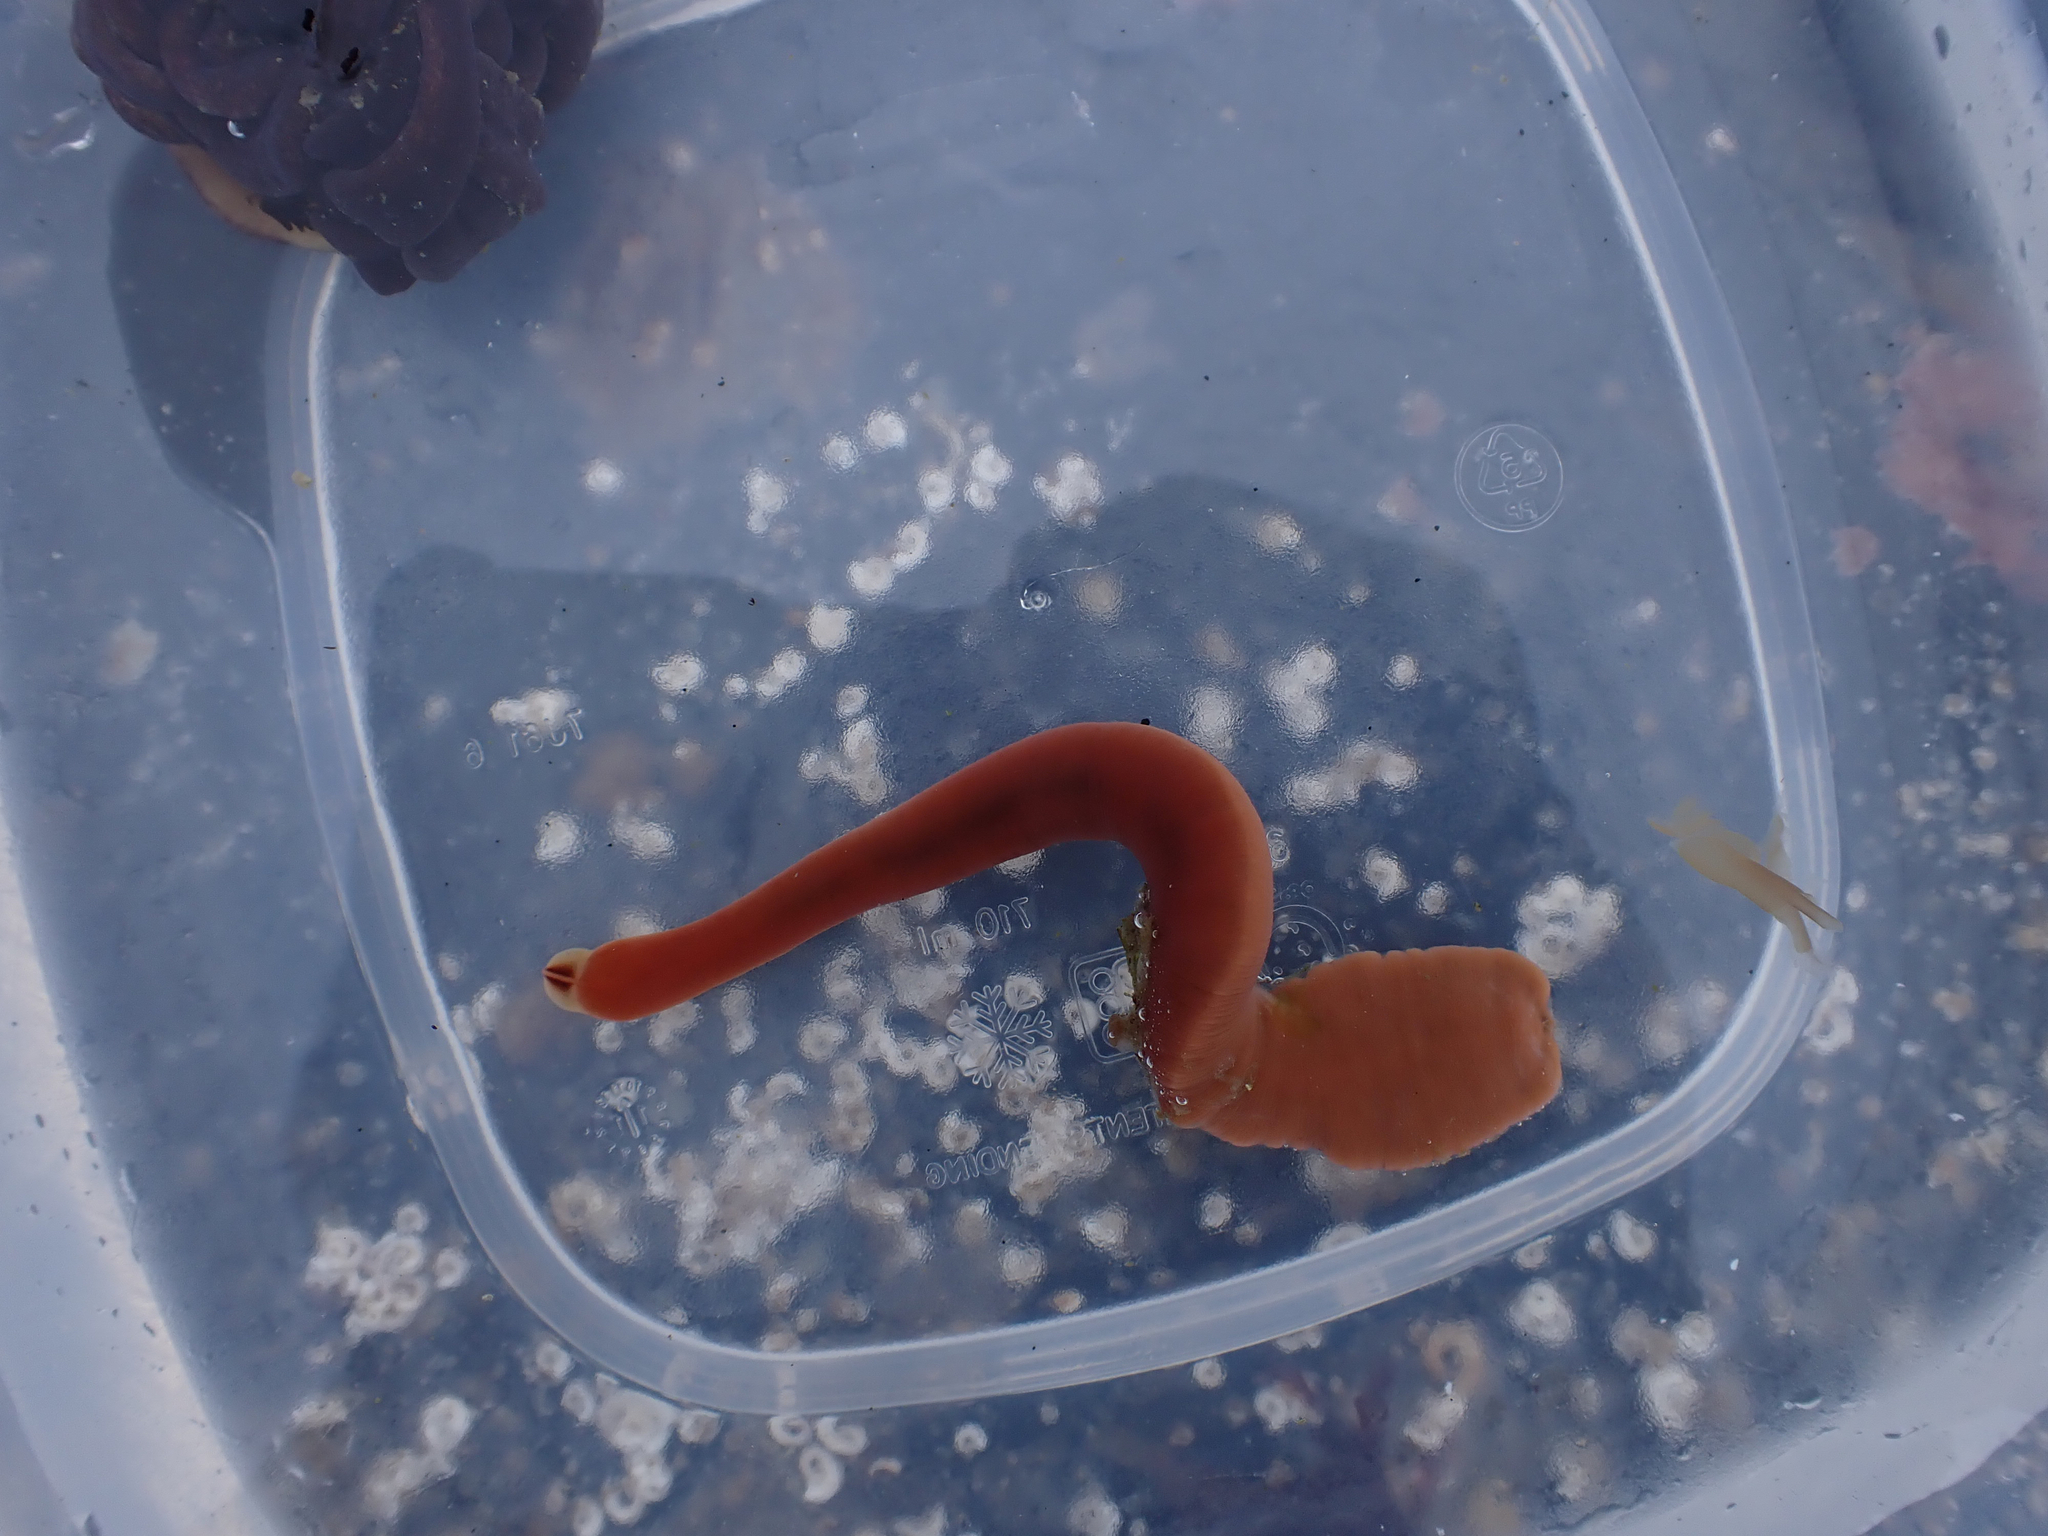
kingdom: Animalia
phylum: Nemertea
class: Hoplonemertea
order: Monostilifera
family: Cratenemertidae
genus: Nipponnemertes
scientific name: Nipponnemertes bimaculata
